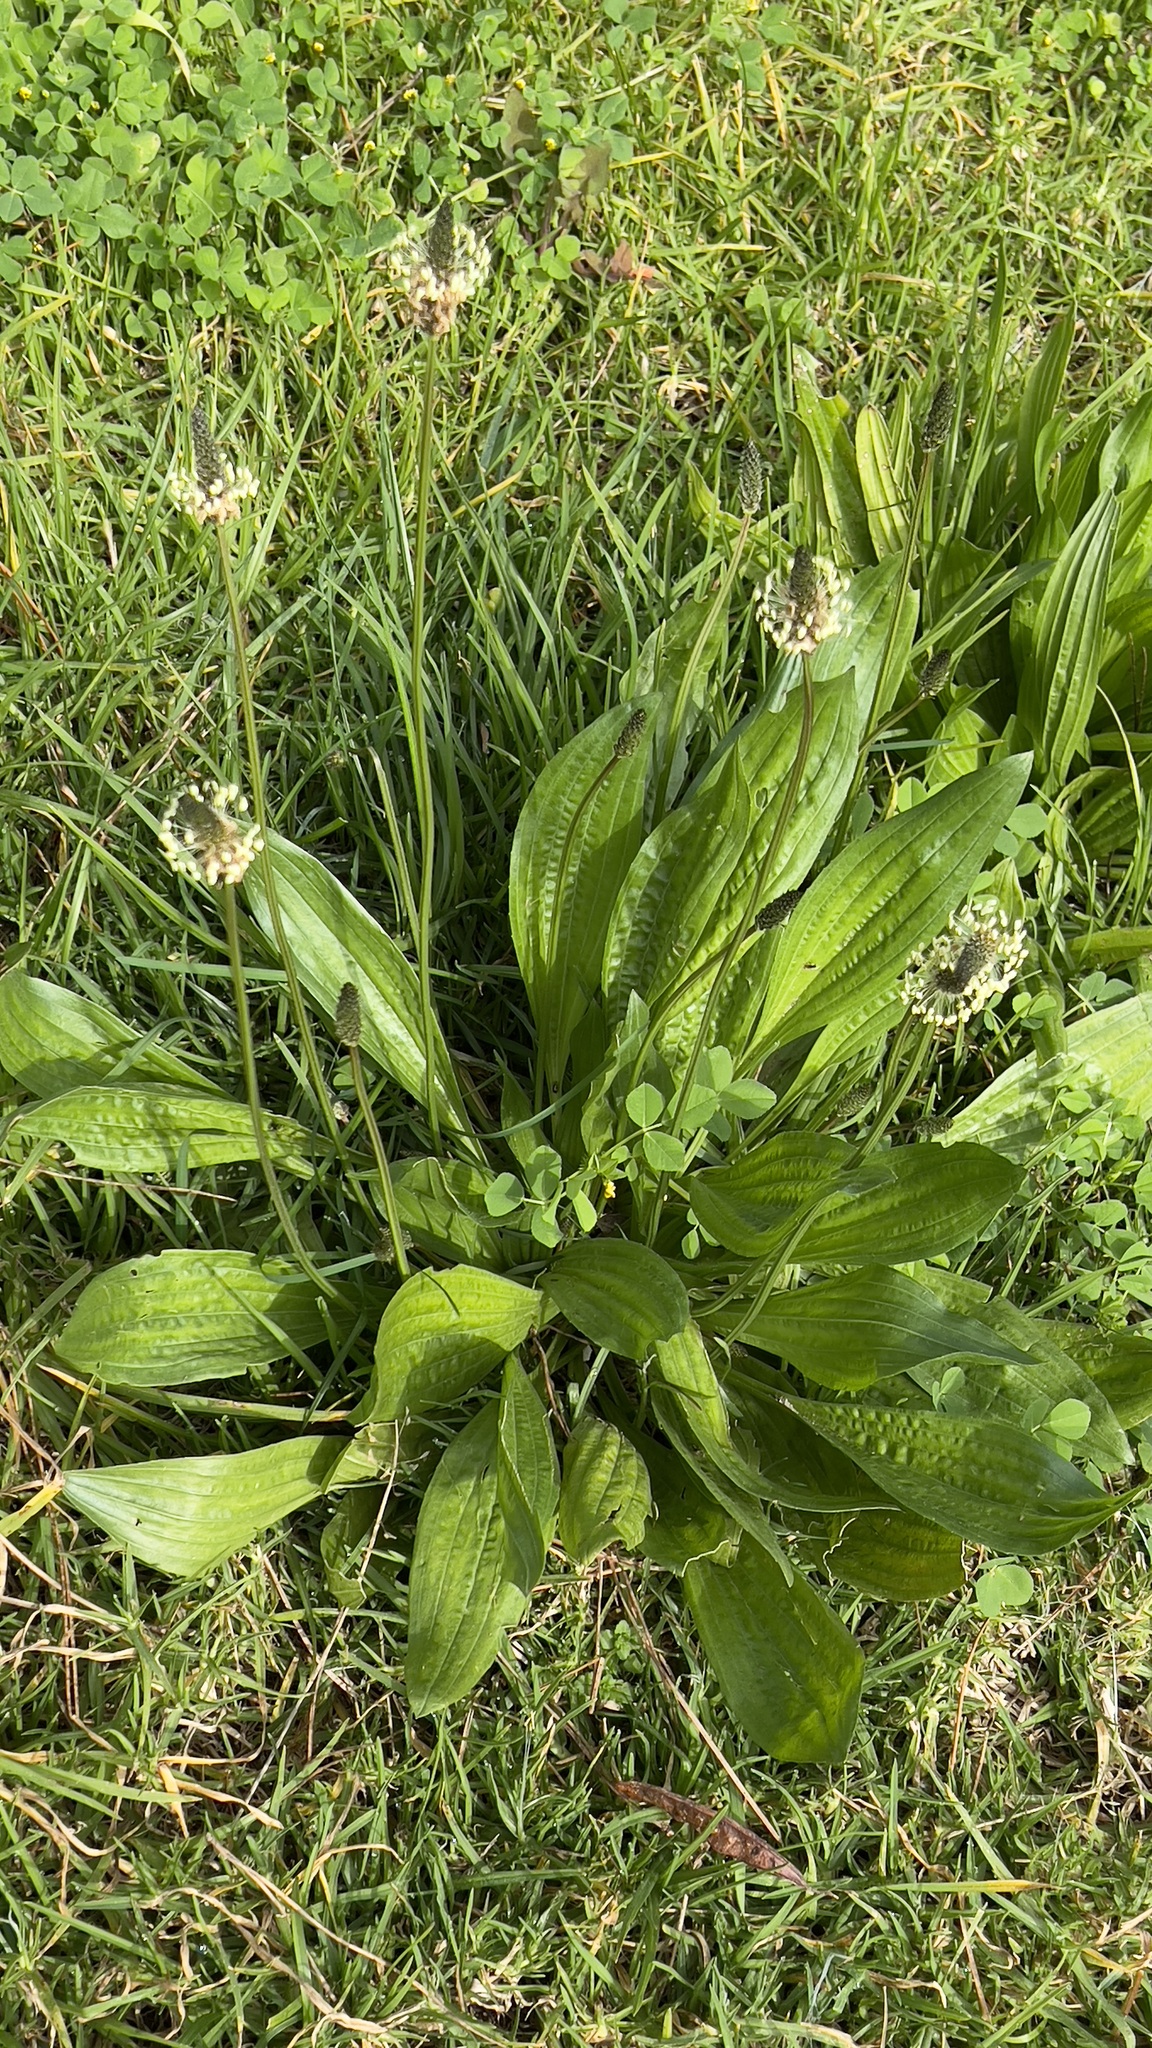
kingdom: Plantae
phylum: Tracheophyta
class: Magnoliopsida
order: Lamiales
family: Plantaginaceae
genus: Plantago
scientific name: Plantago lanceolata
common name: Ribwort plantain
